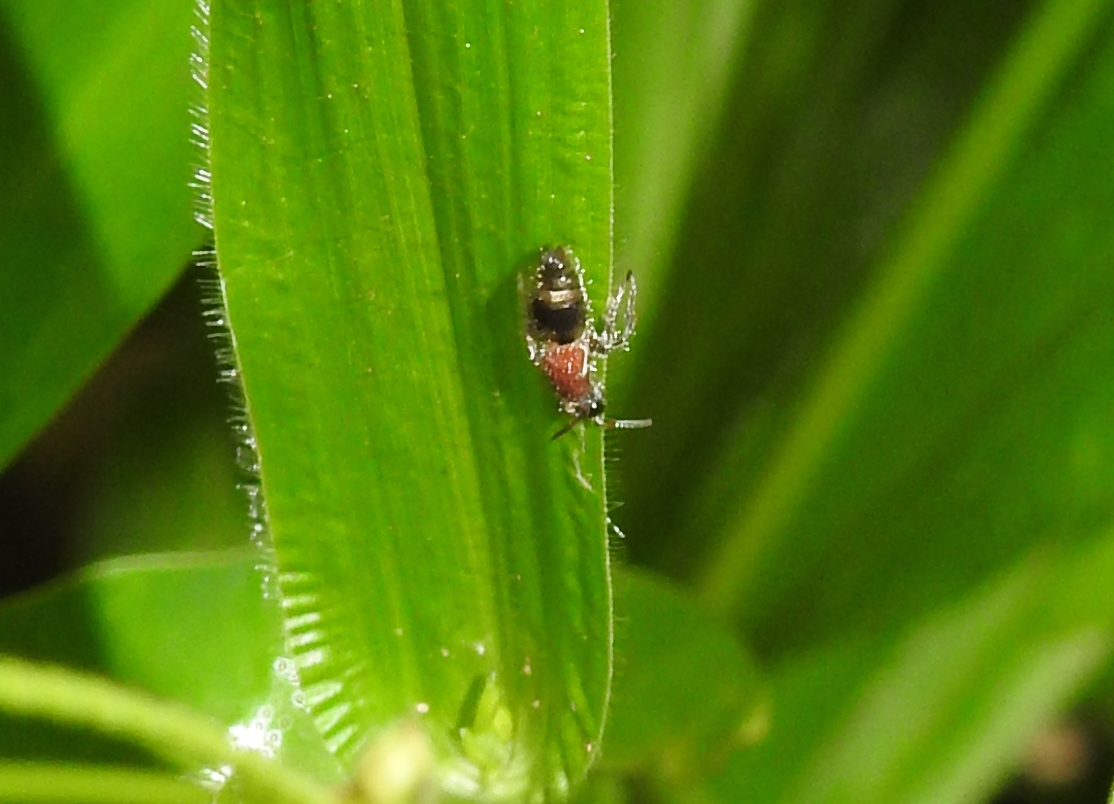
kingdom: Animalia
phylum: Arthropoda
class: Insecta
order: Hymenoptera
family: Mutillidae
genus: Smicromyrme
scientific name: Smicromyrme athalia
